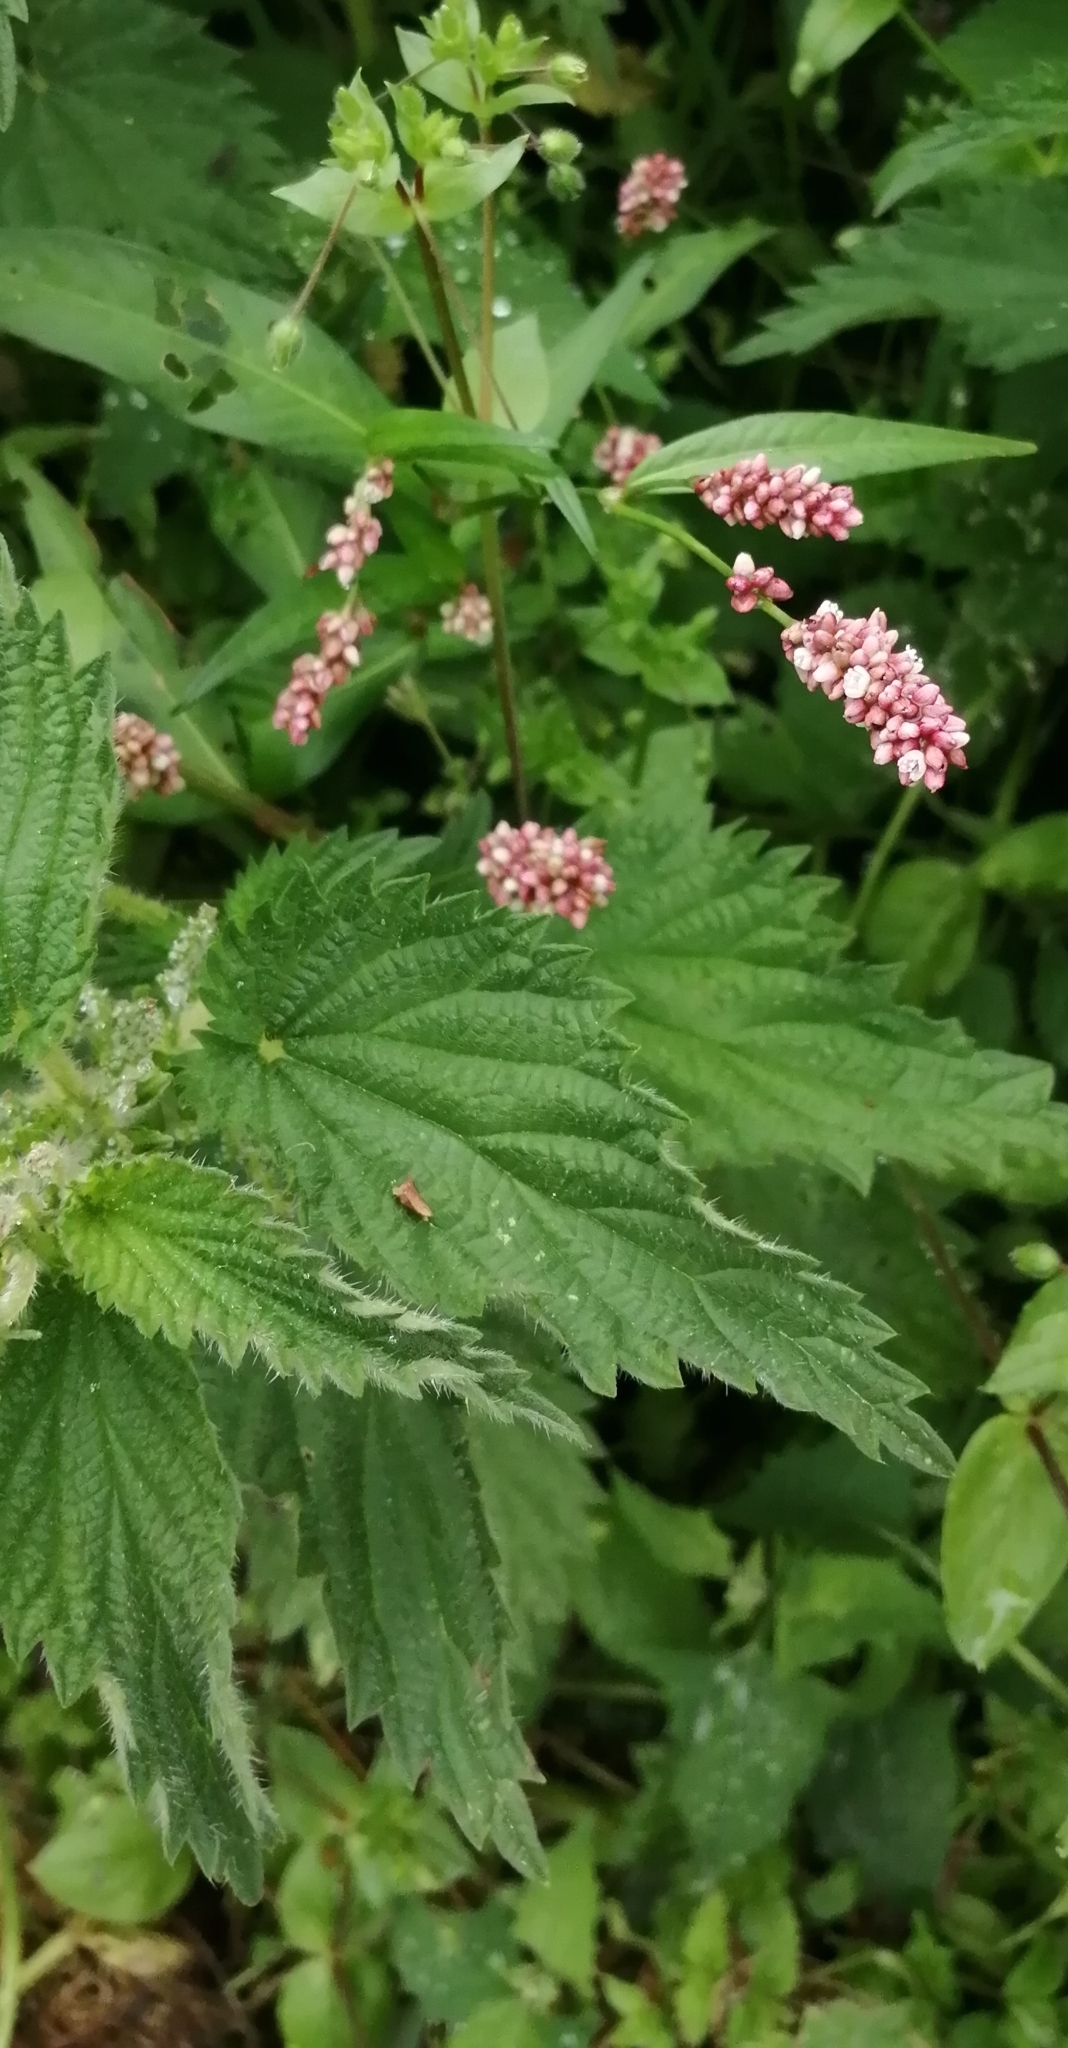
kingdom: Plantae
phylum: Tracheophyta
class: Magnoliopsida
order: Caryophyllales
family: Polygonaceae
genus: Persicaria
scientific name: Persicaria maculosa
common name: Redshank
